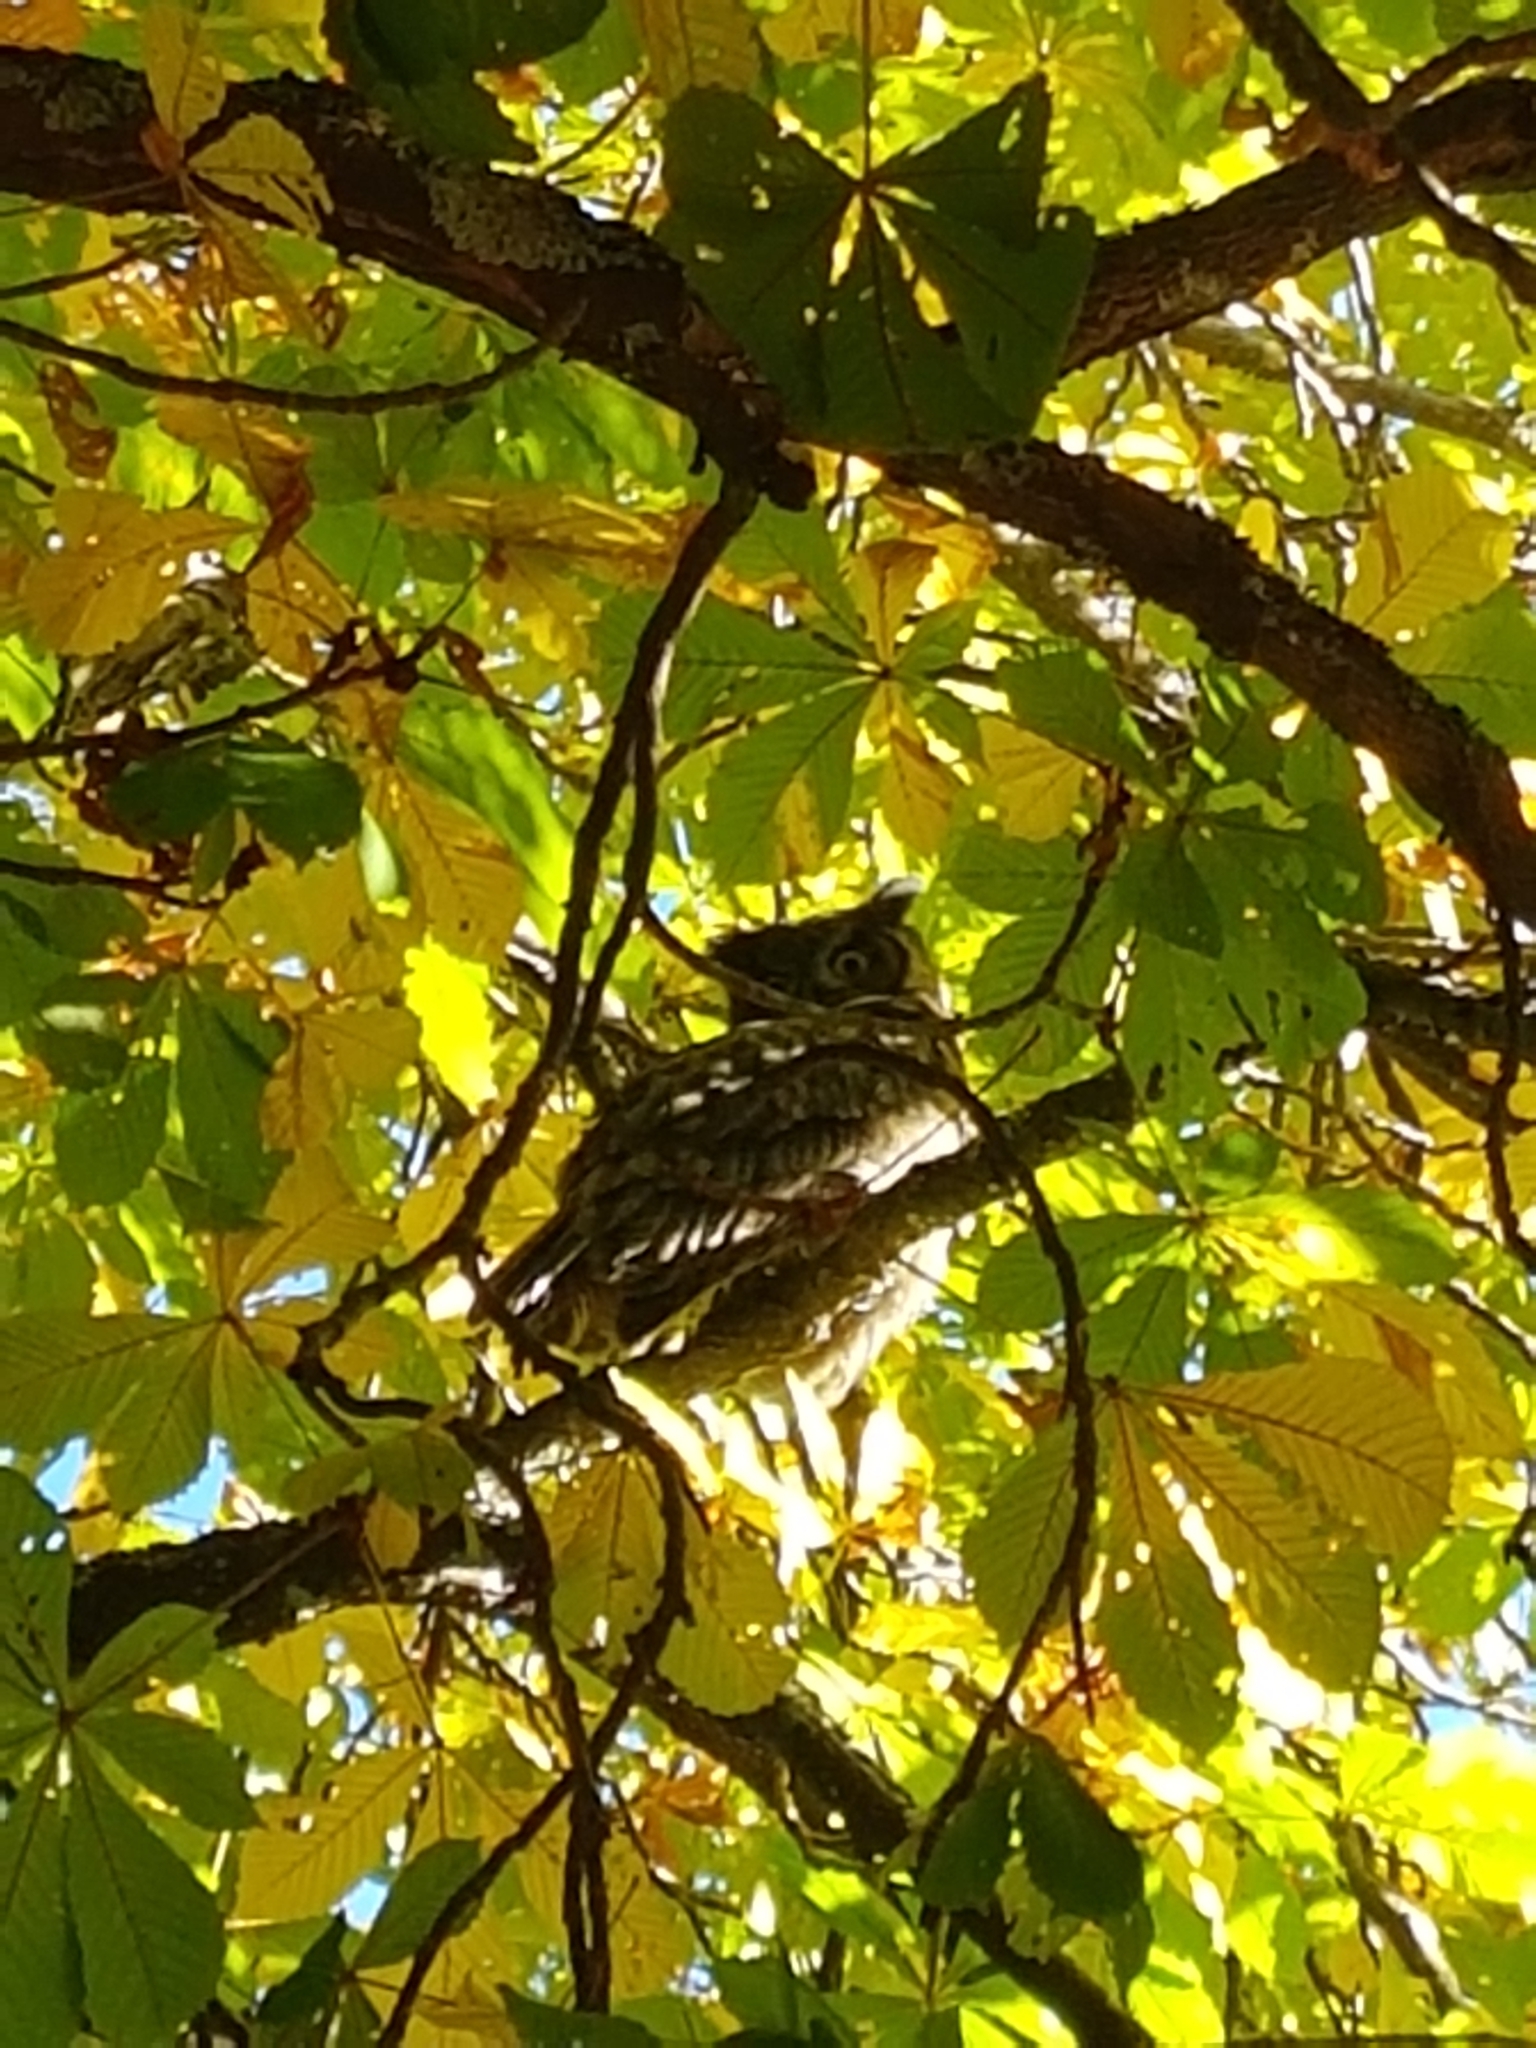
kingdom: Animalia
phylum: Chordata
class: Aves
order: Strigiformes
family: Strigidae
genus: Bubo
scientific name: Bubo virginianus
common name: Great horned owl
